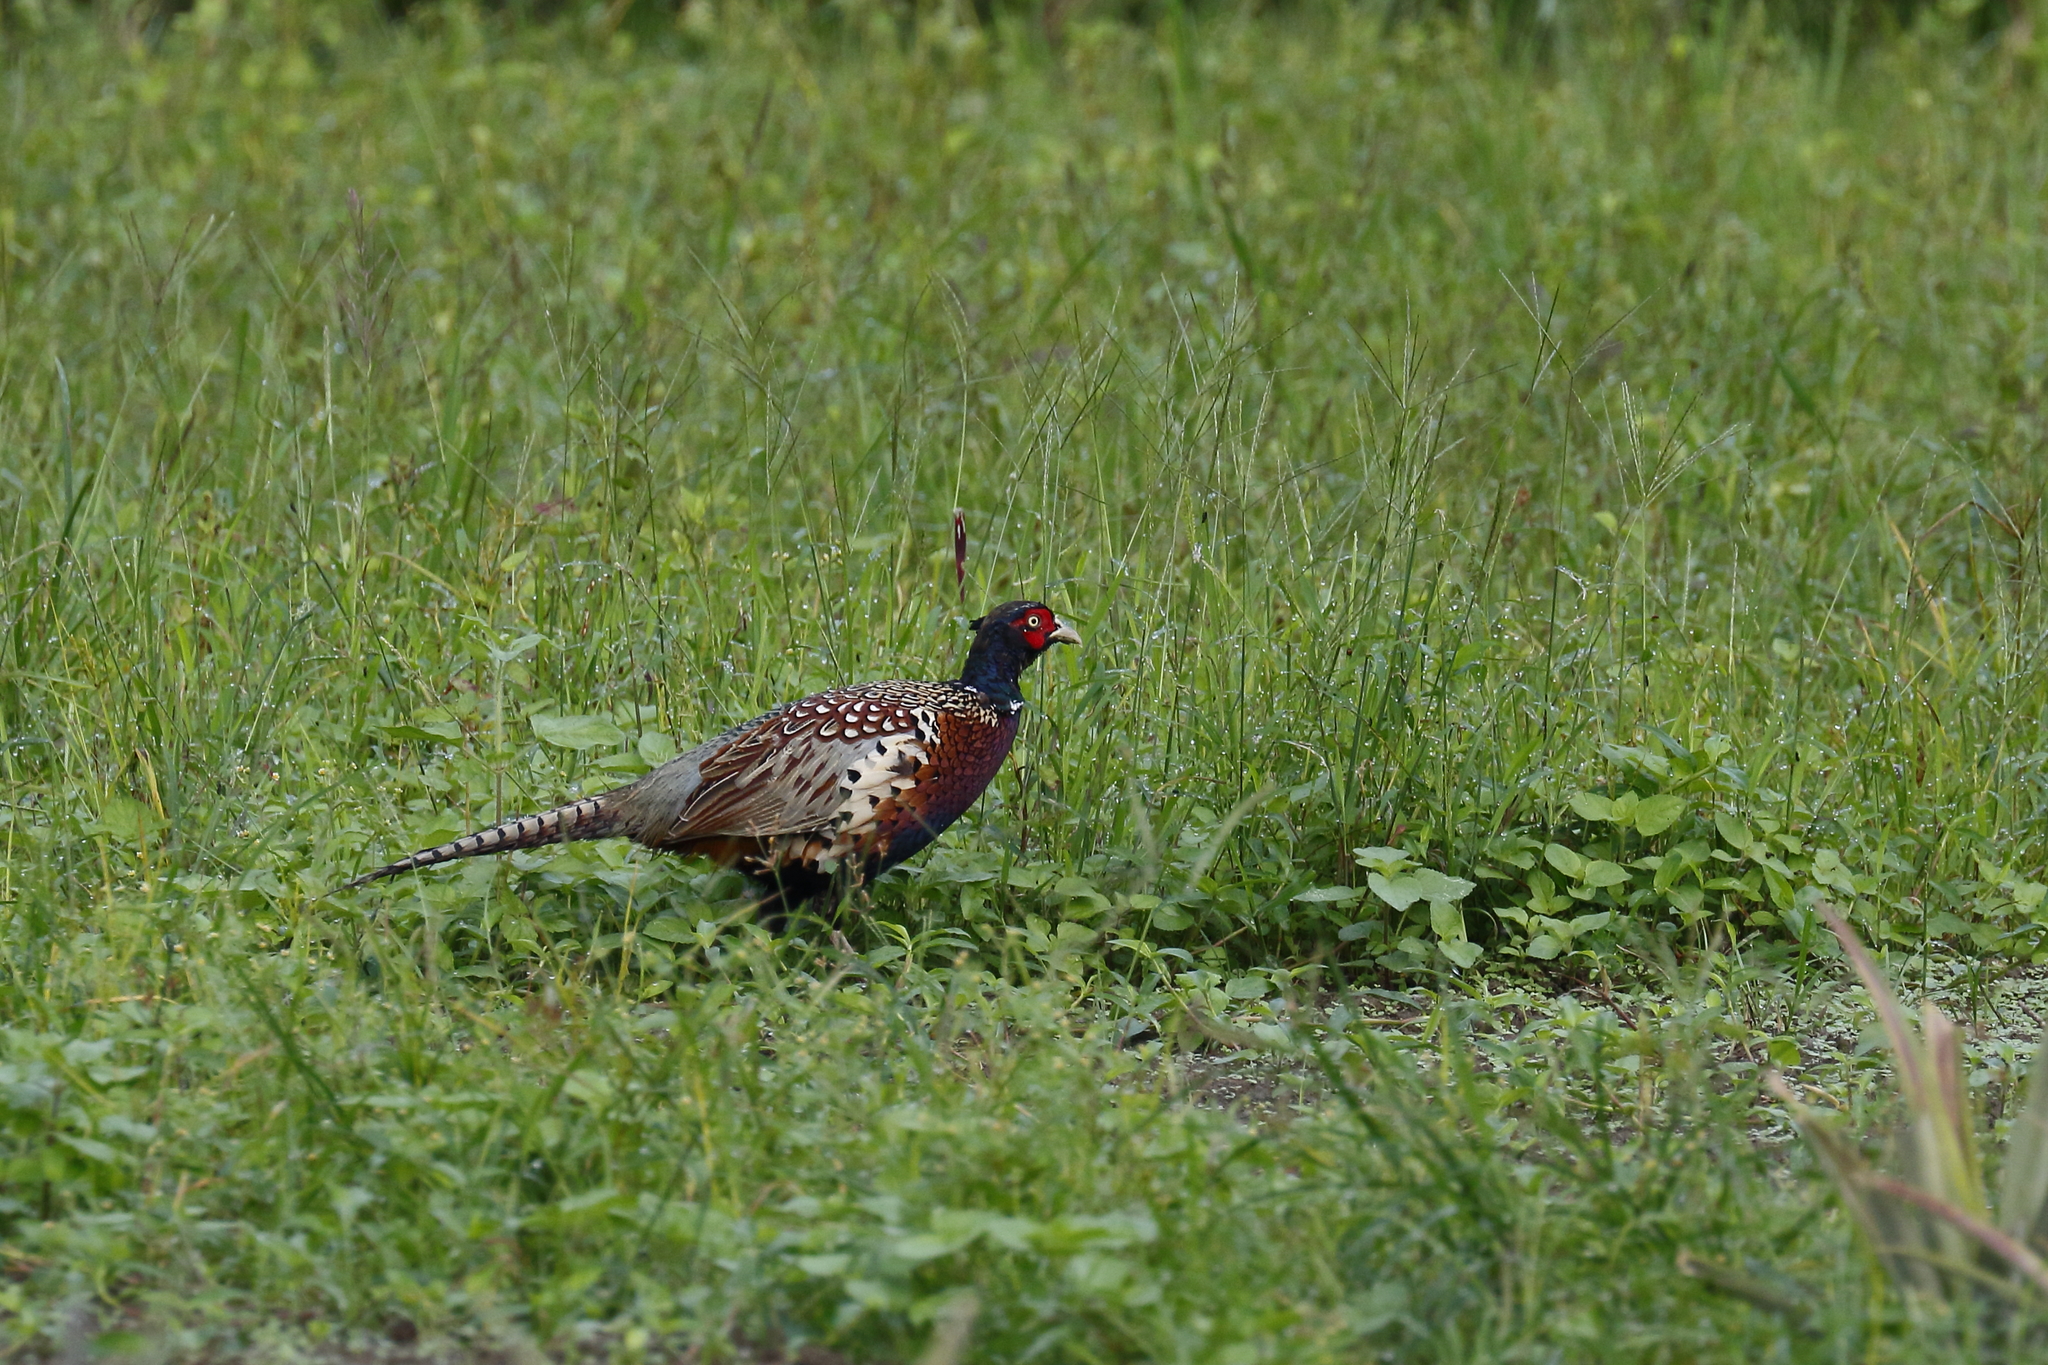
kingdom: Animalia
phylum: Chordata
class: Aves
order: Galliformes
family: Phasianidae
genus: Phasianus
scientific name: Phasianus colchicus
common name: Common pheasant
